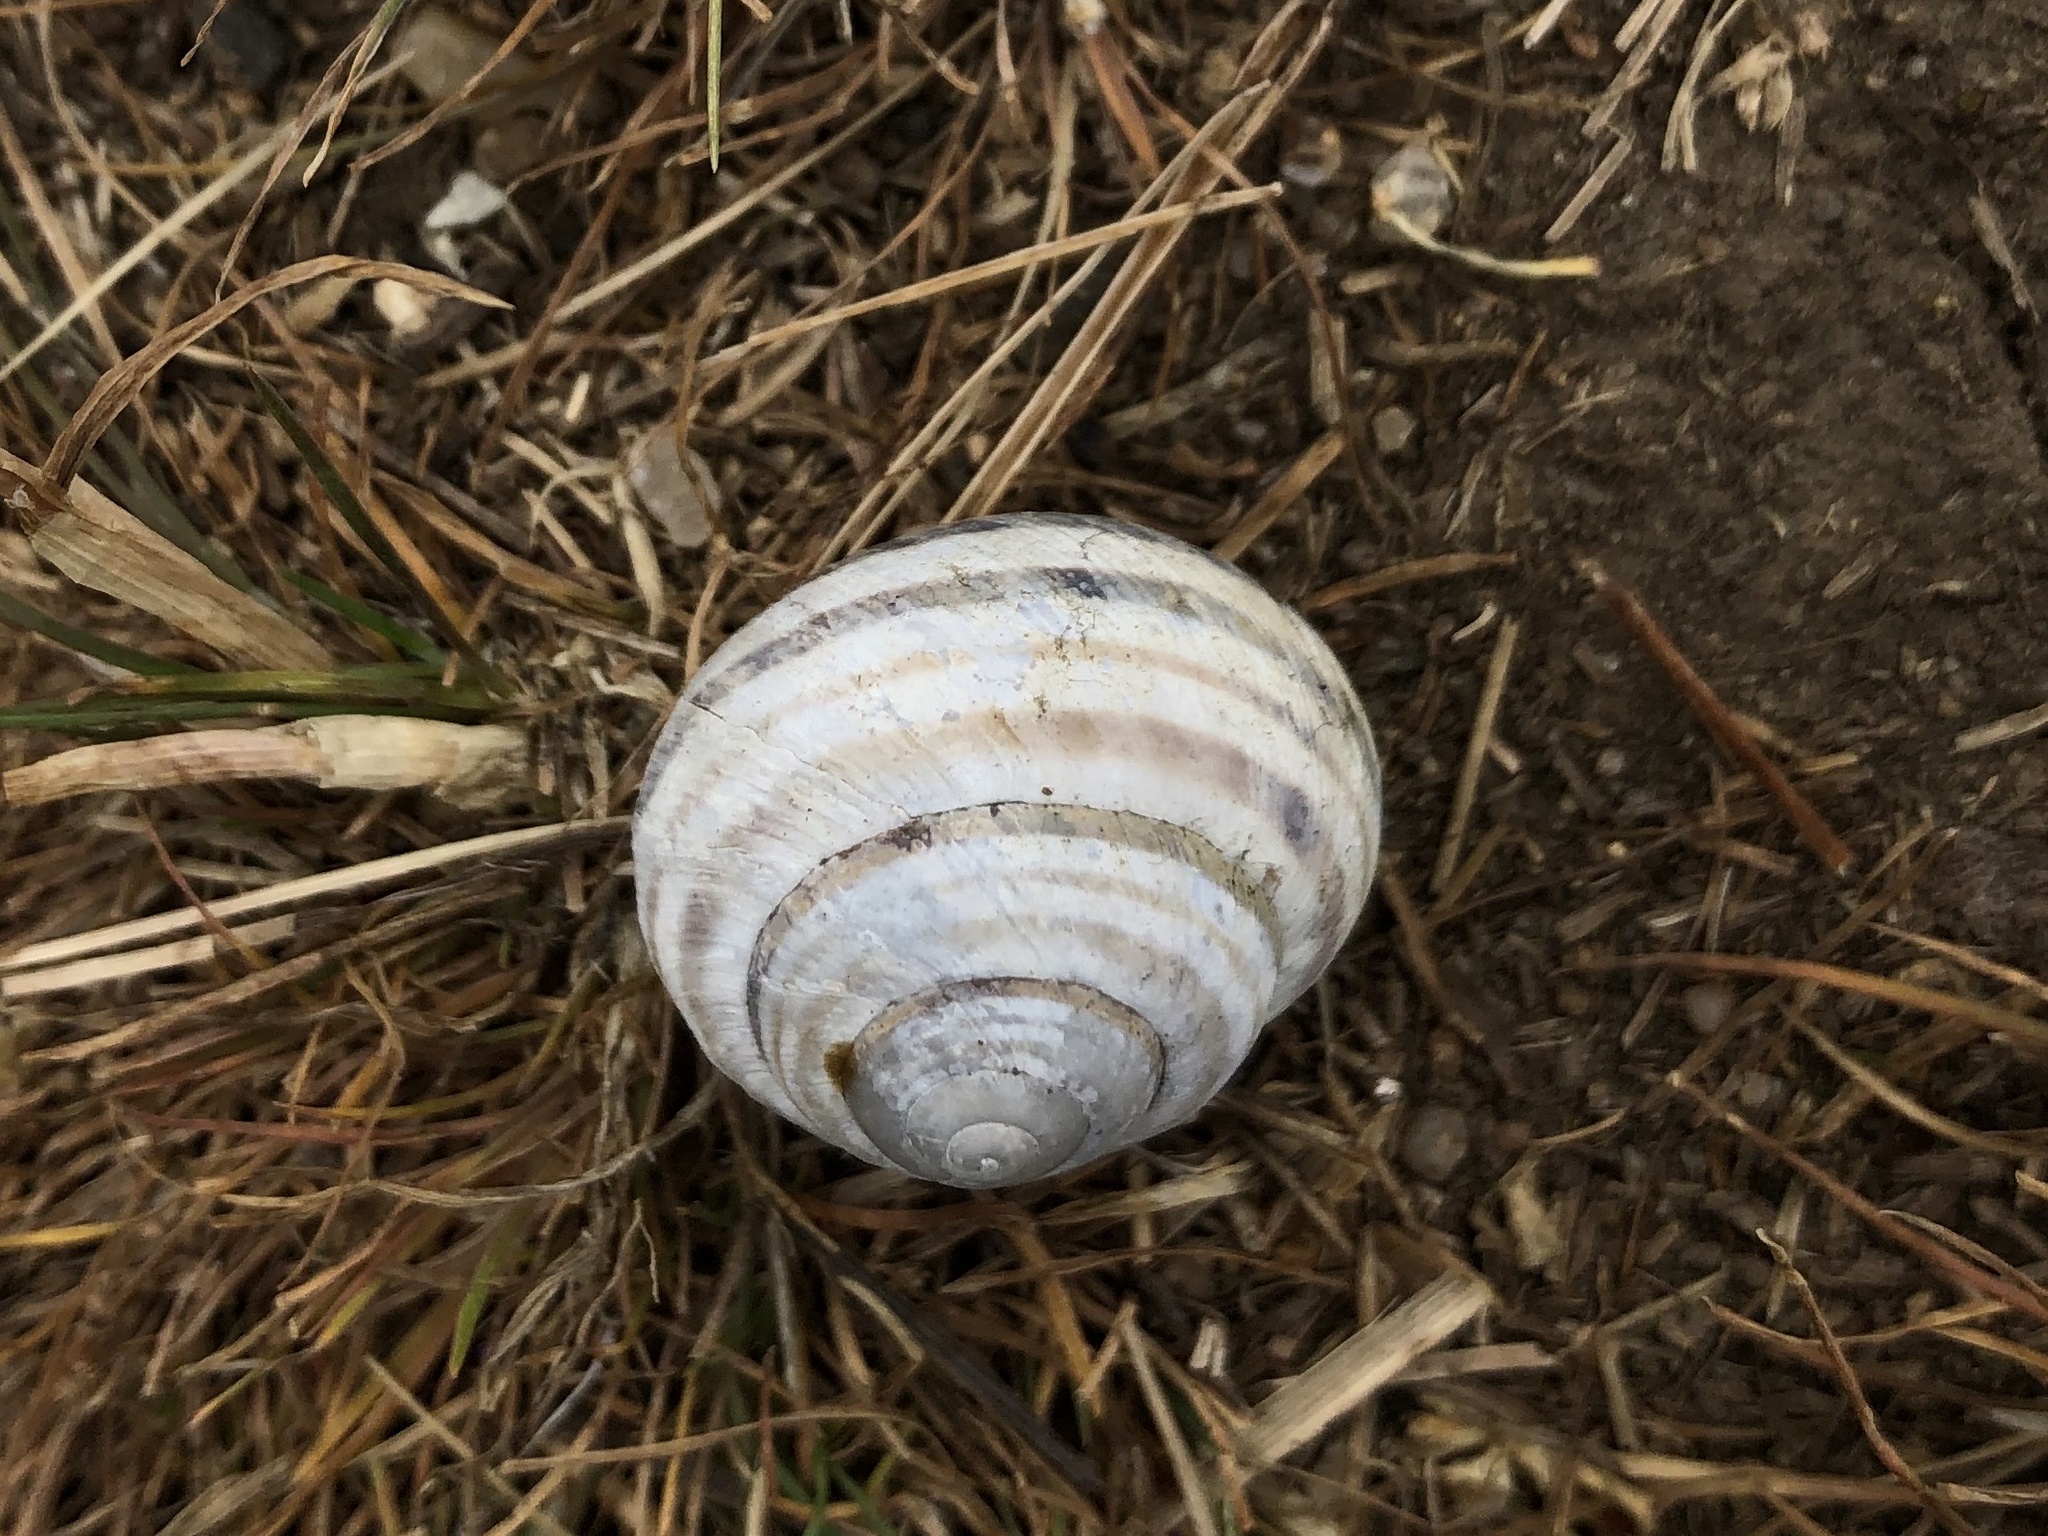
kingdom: Animalia
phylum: Mollusca
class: Gastropoda
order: Stylommatophora
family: Helicidae
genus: Caucasotachea
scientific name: Caucasotachea vindobonensis
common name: European helicid land snail
